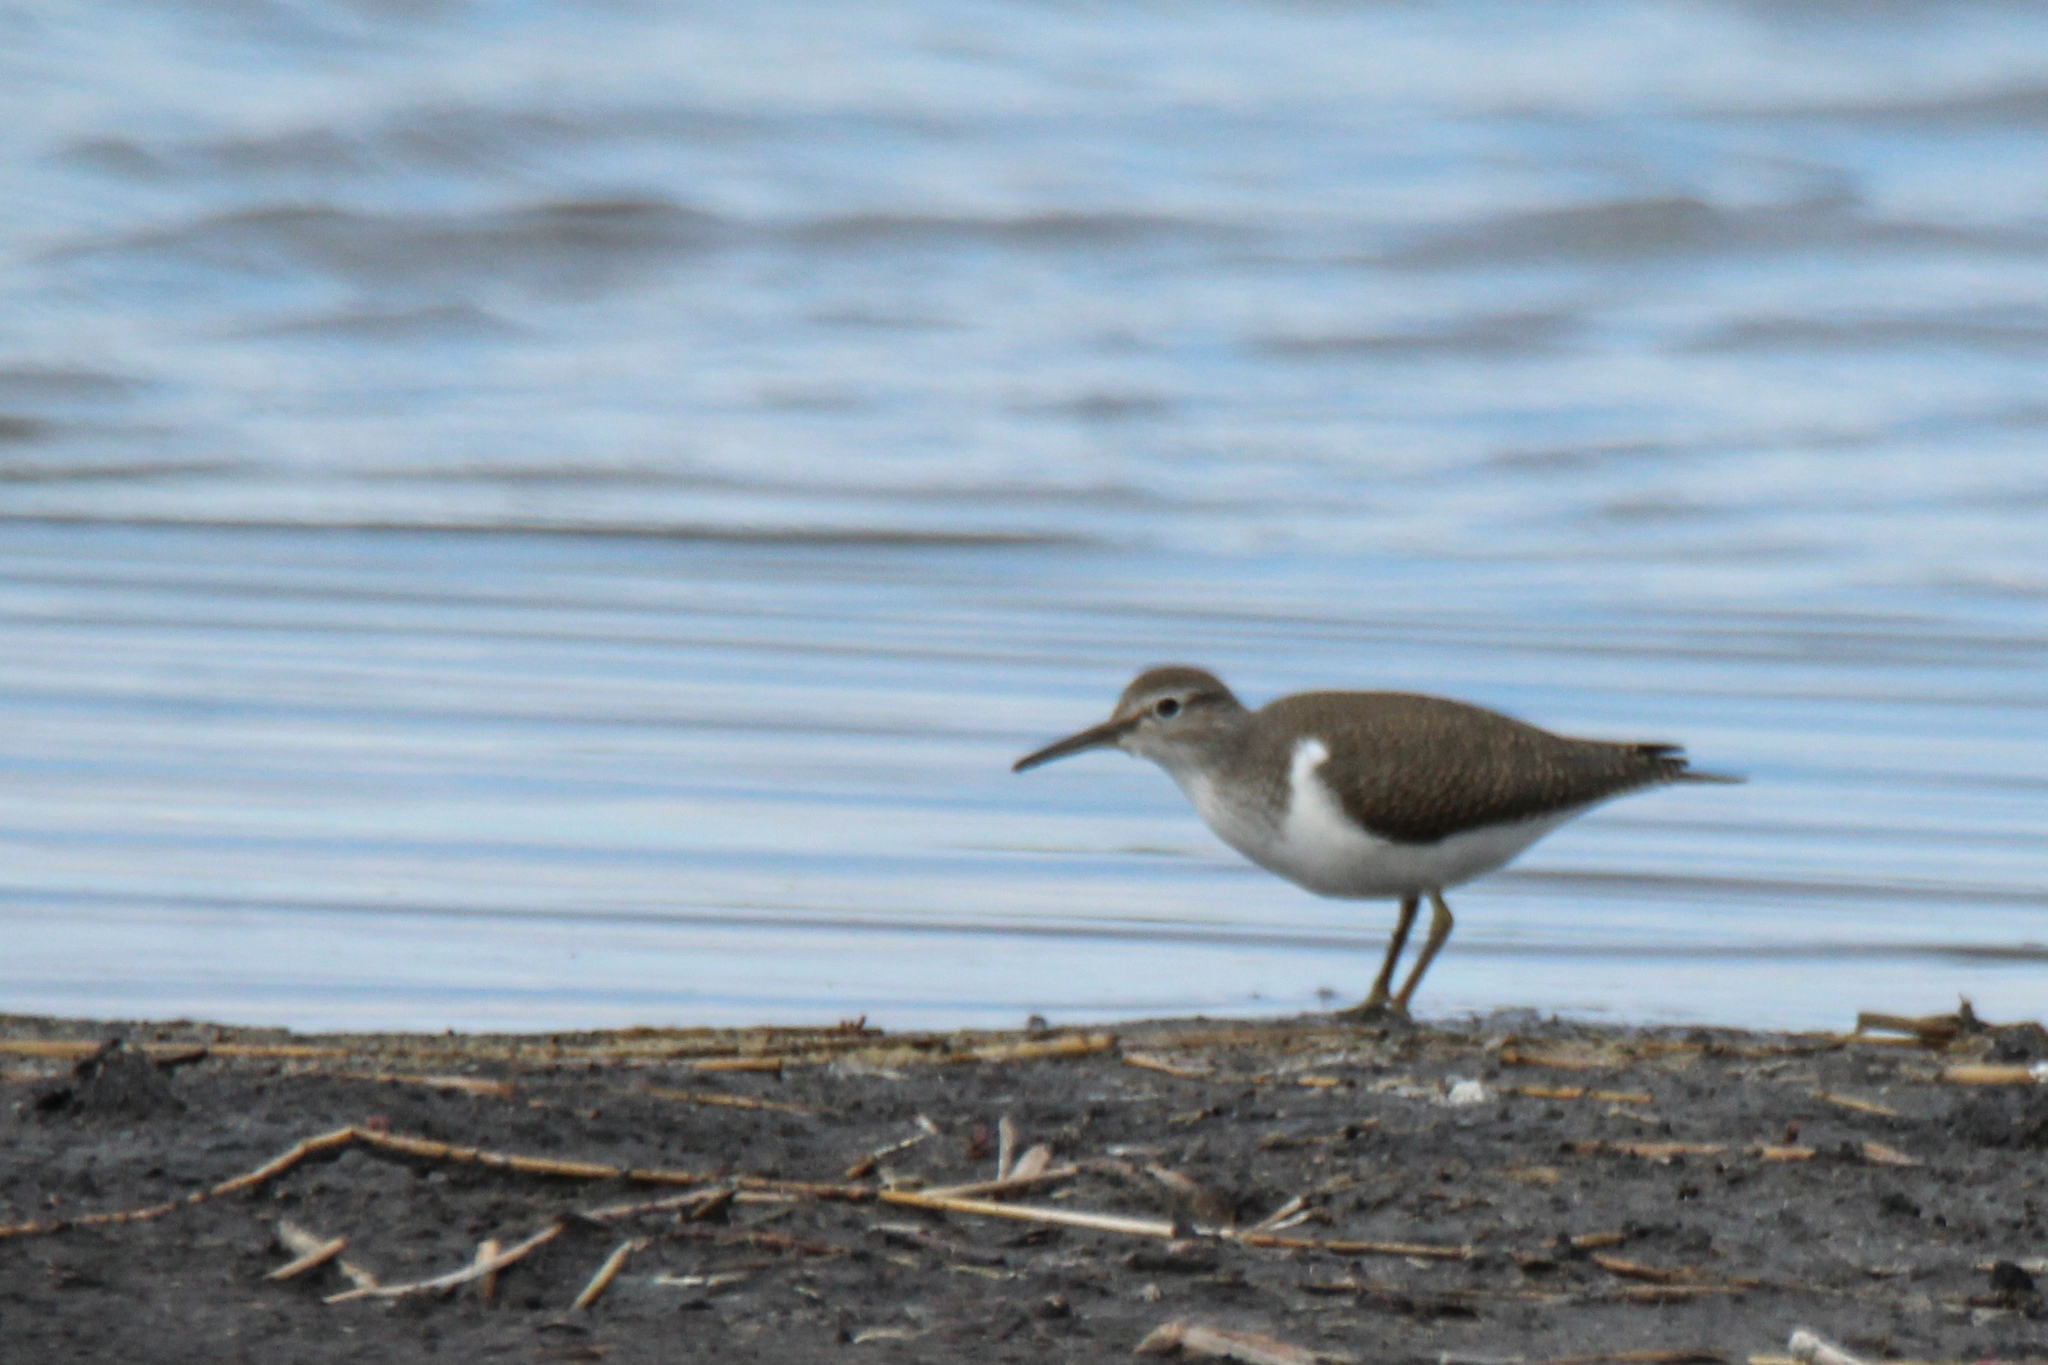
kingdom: Animalia
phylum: Chordata
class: Aves
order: Charadriiformes
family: Scolopacidae
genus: Actitis
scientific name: Actitis hypoleucos
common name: Common sandpiper
